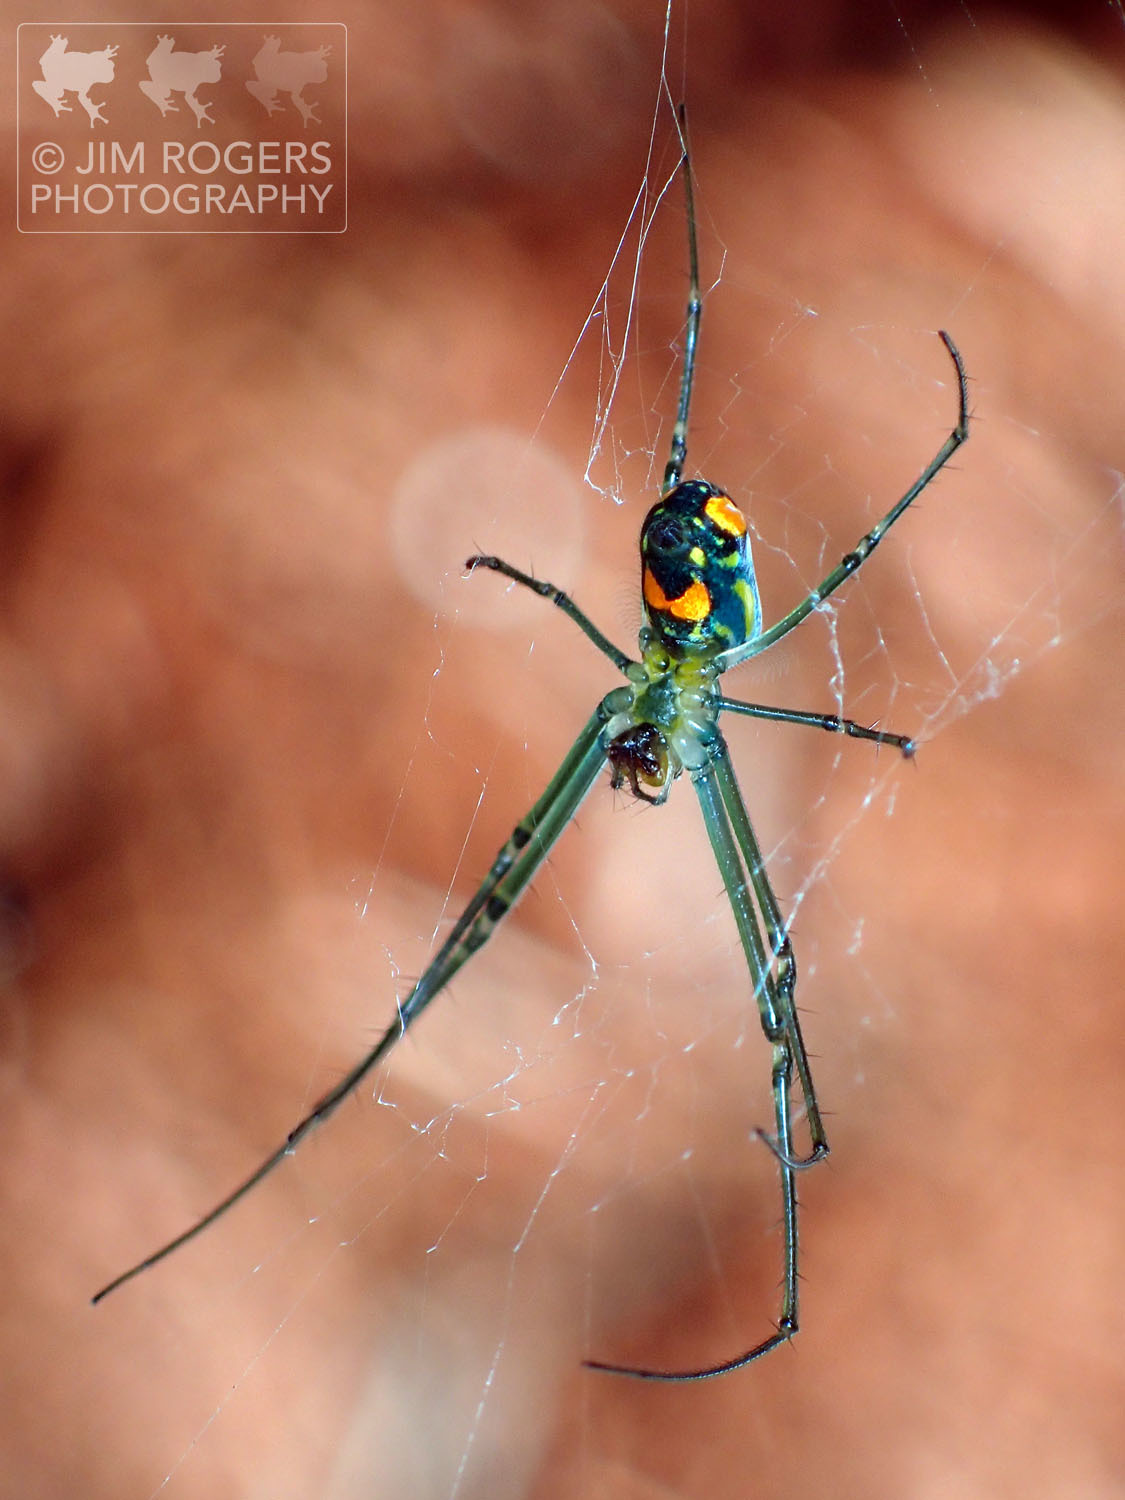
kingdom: Animalia
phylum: Arthropoda
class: Arachnida
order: Araneae
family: Tetragnathidae
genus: Leucauge
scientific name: Leucauge argyra
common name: Longjawed orb weavers
